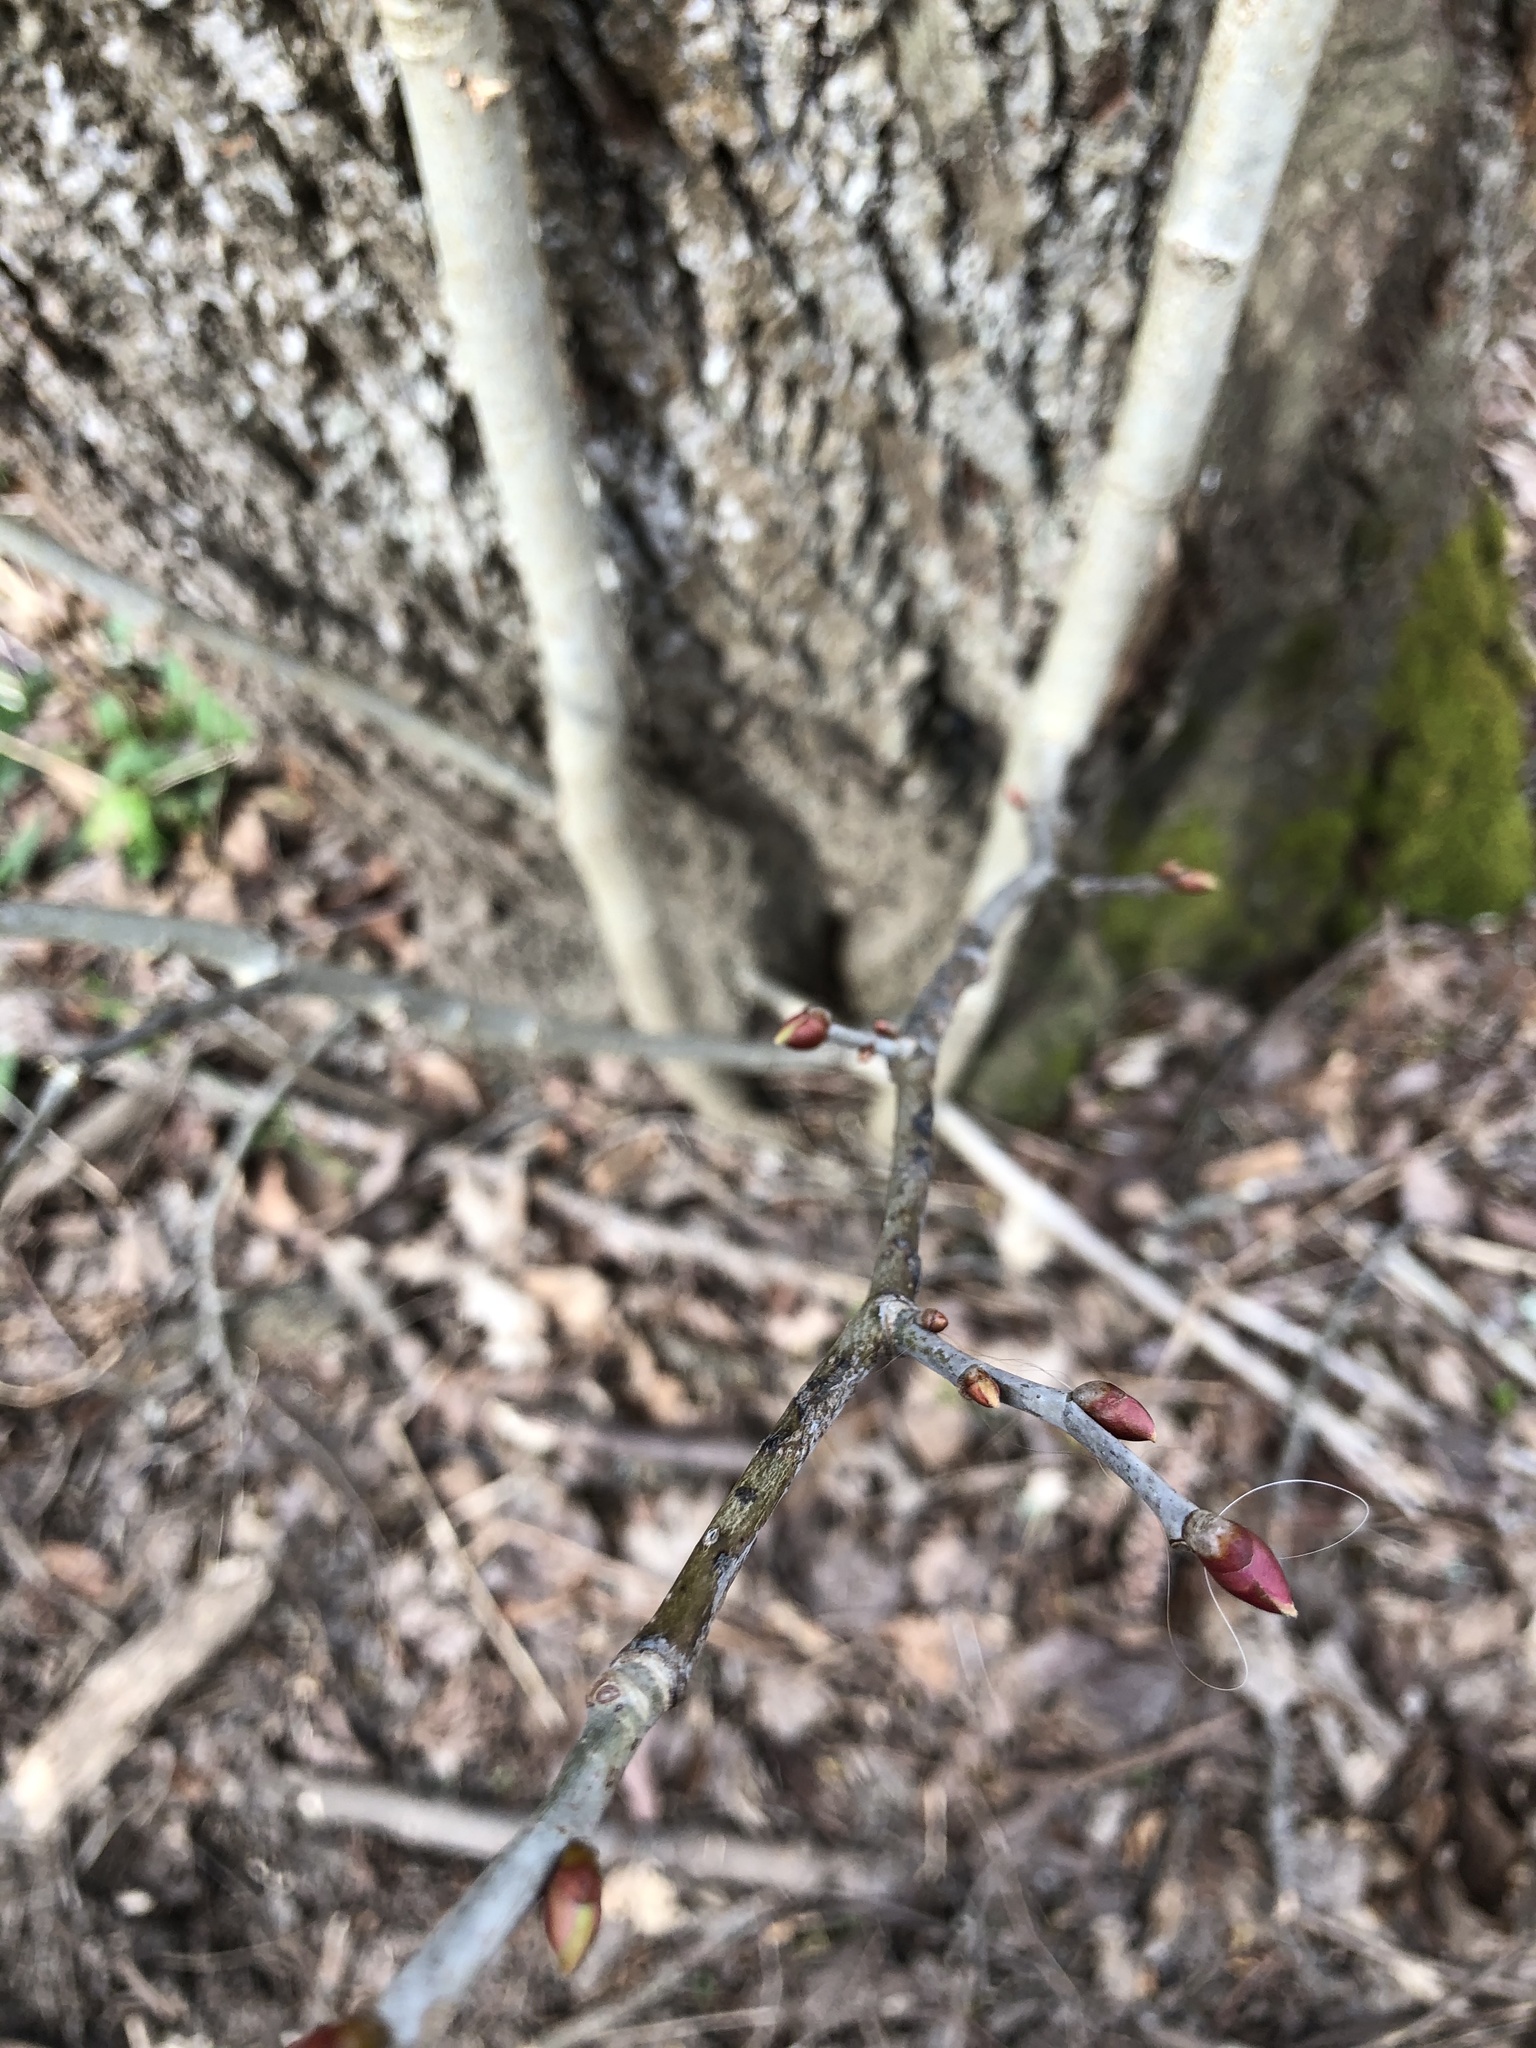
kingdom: Plantae
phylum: Tracheophyta
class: Magnoliopsida
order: Malvales
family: Malvaceae
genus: Tilia
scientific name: Tilia americana
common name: Basswood
